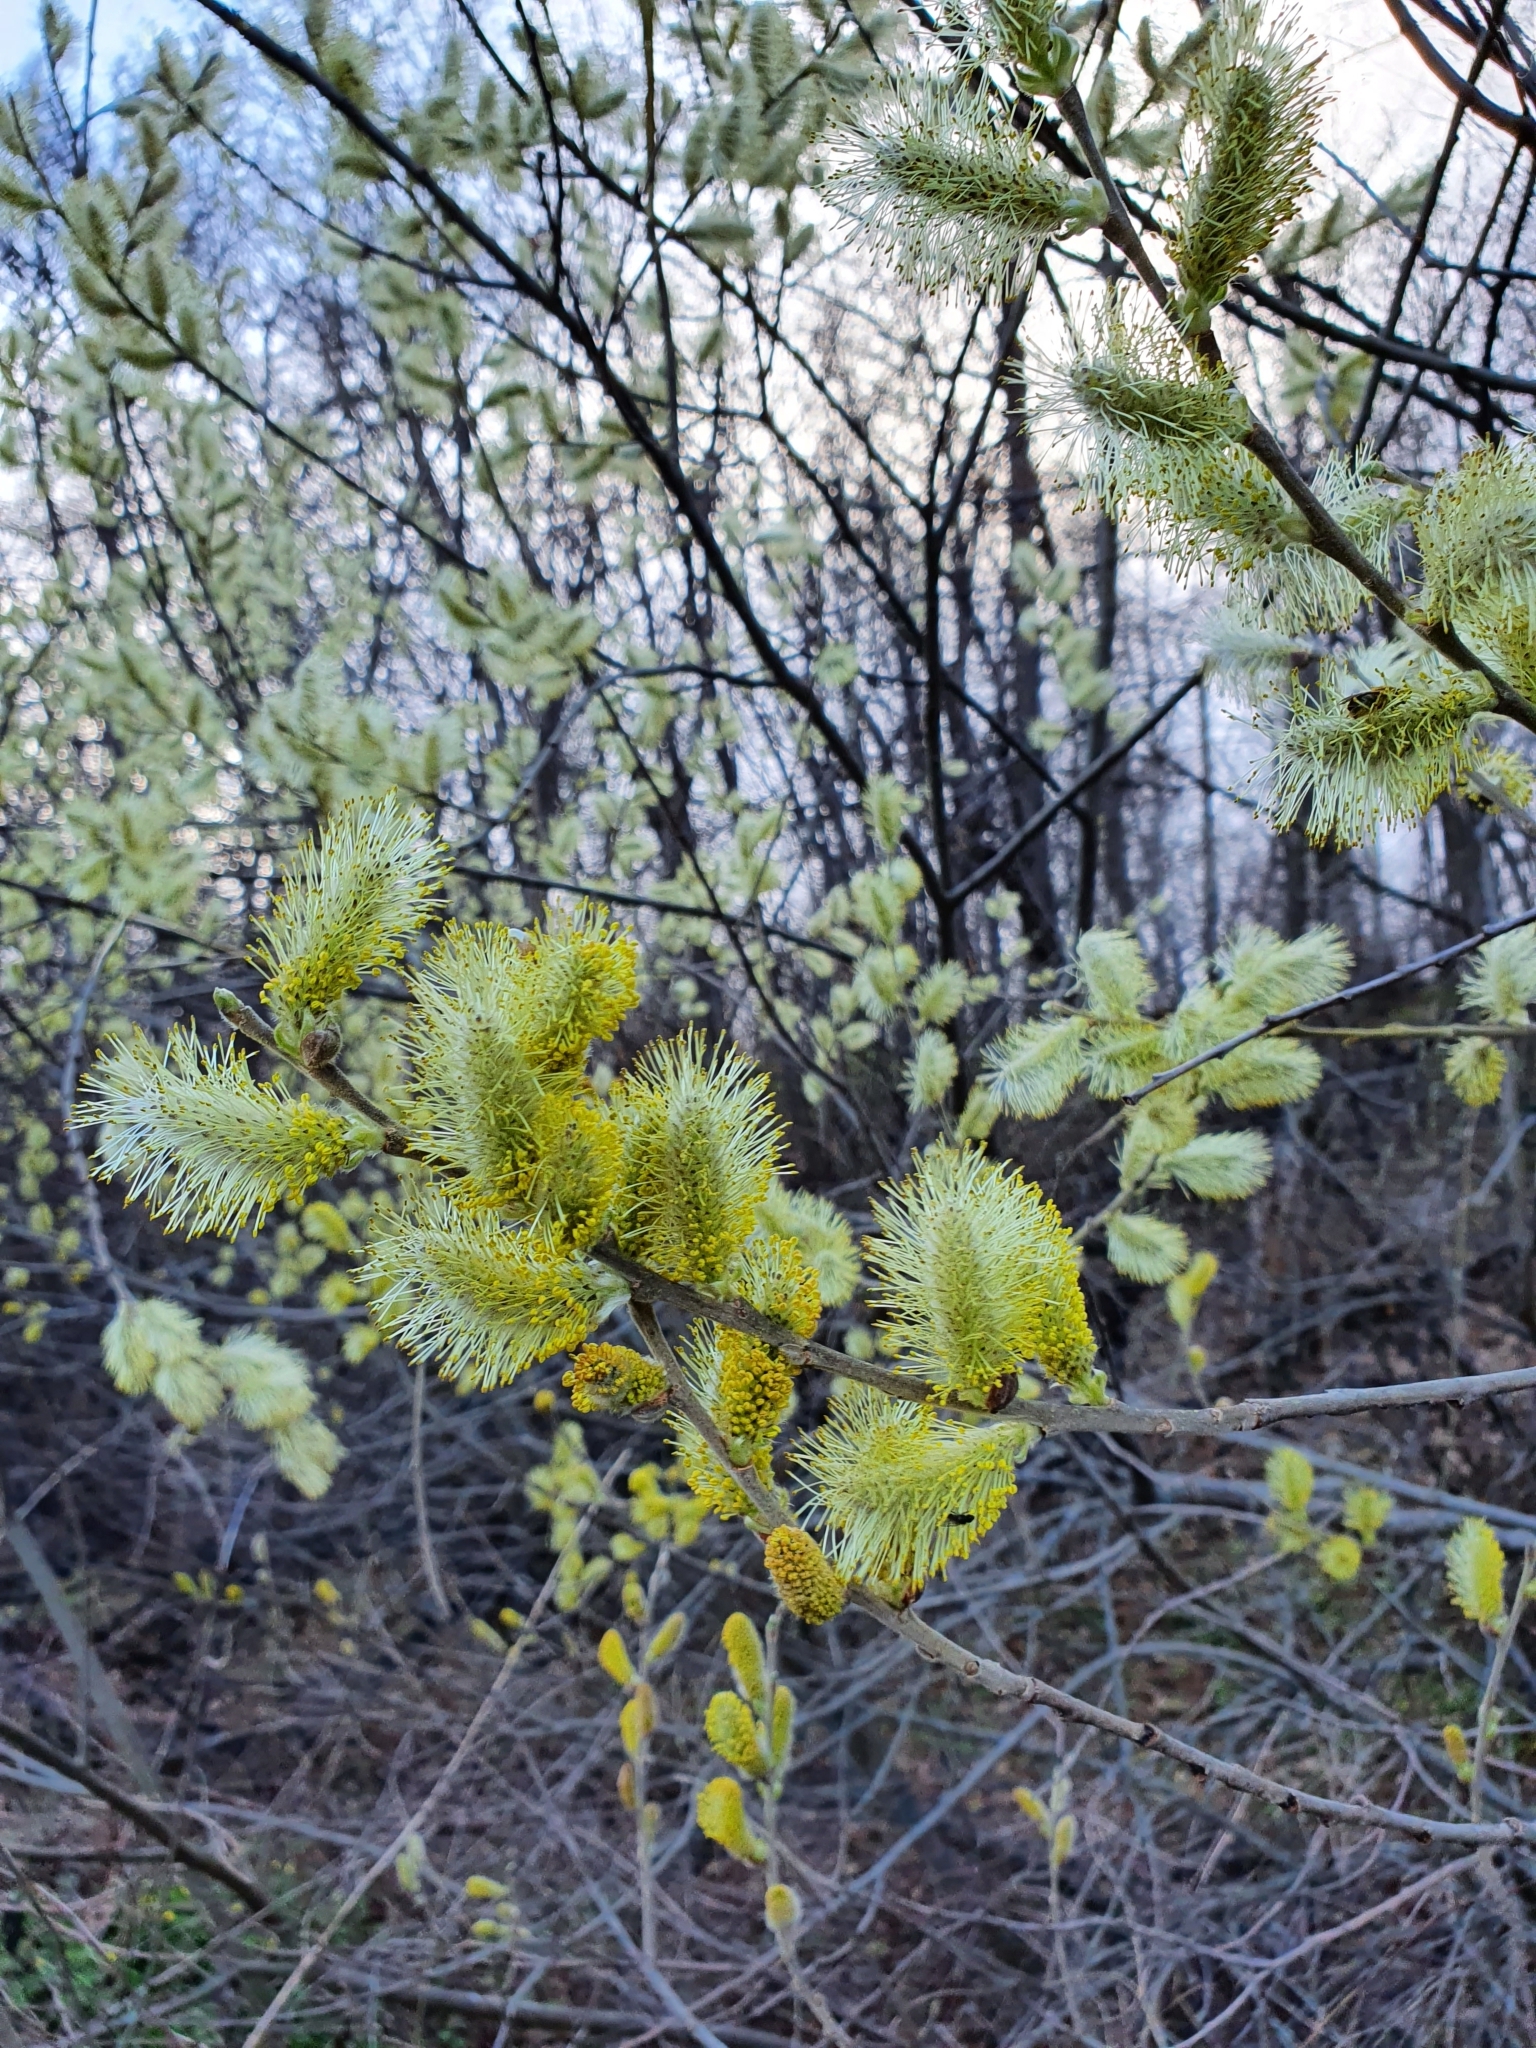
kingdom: Plantae
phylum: Tracheophyta
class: Magnoliopsida
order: Malpighiales
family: Salicaceae
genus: Salix
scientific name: Salix cinerea
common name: Common sallow
